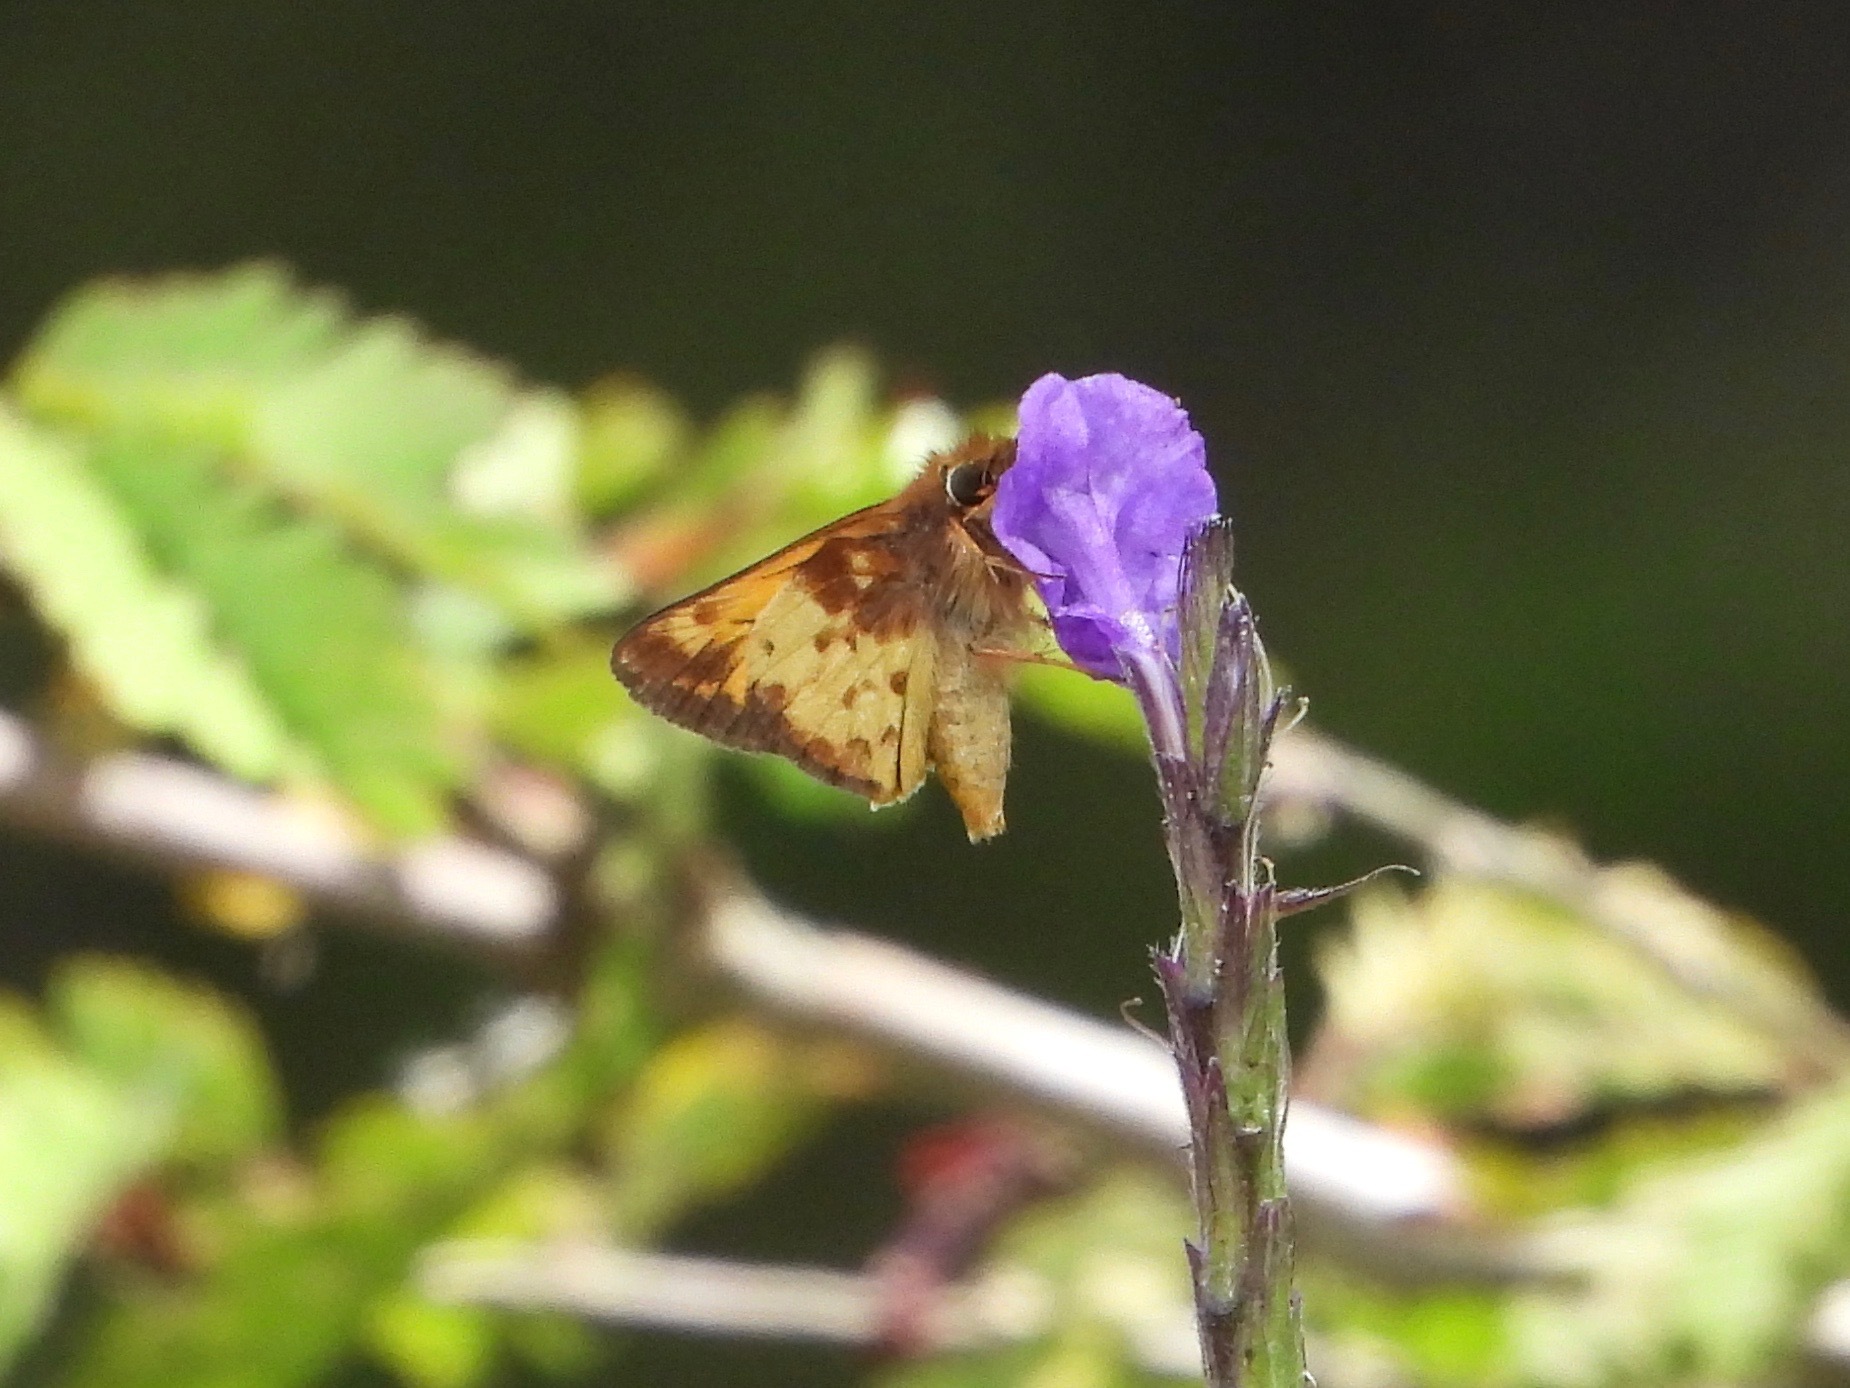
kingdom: Animalia
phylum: Arthropoda
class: Insecta
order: Lepidoptera
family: Hesperiidae
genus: Lon
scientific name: Lon zabulon
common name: Zabulon skipper
